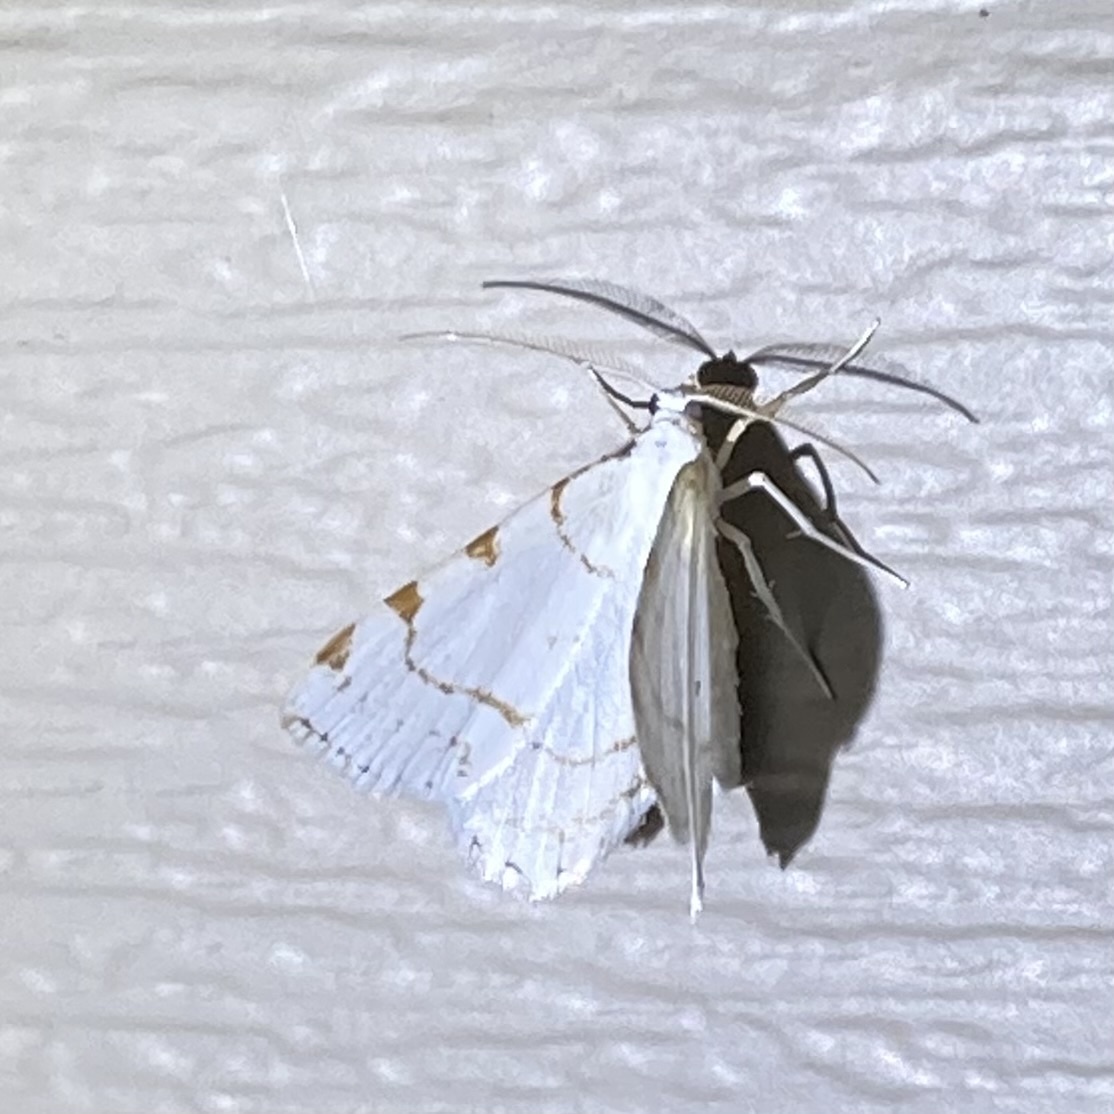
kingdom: Animalia
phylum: Arthropoda
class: Insecta
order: Lepidoptera
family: Geometridae
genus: Macaria
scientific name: Macaria pustularia
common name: Lesser maple spanworm moth
